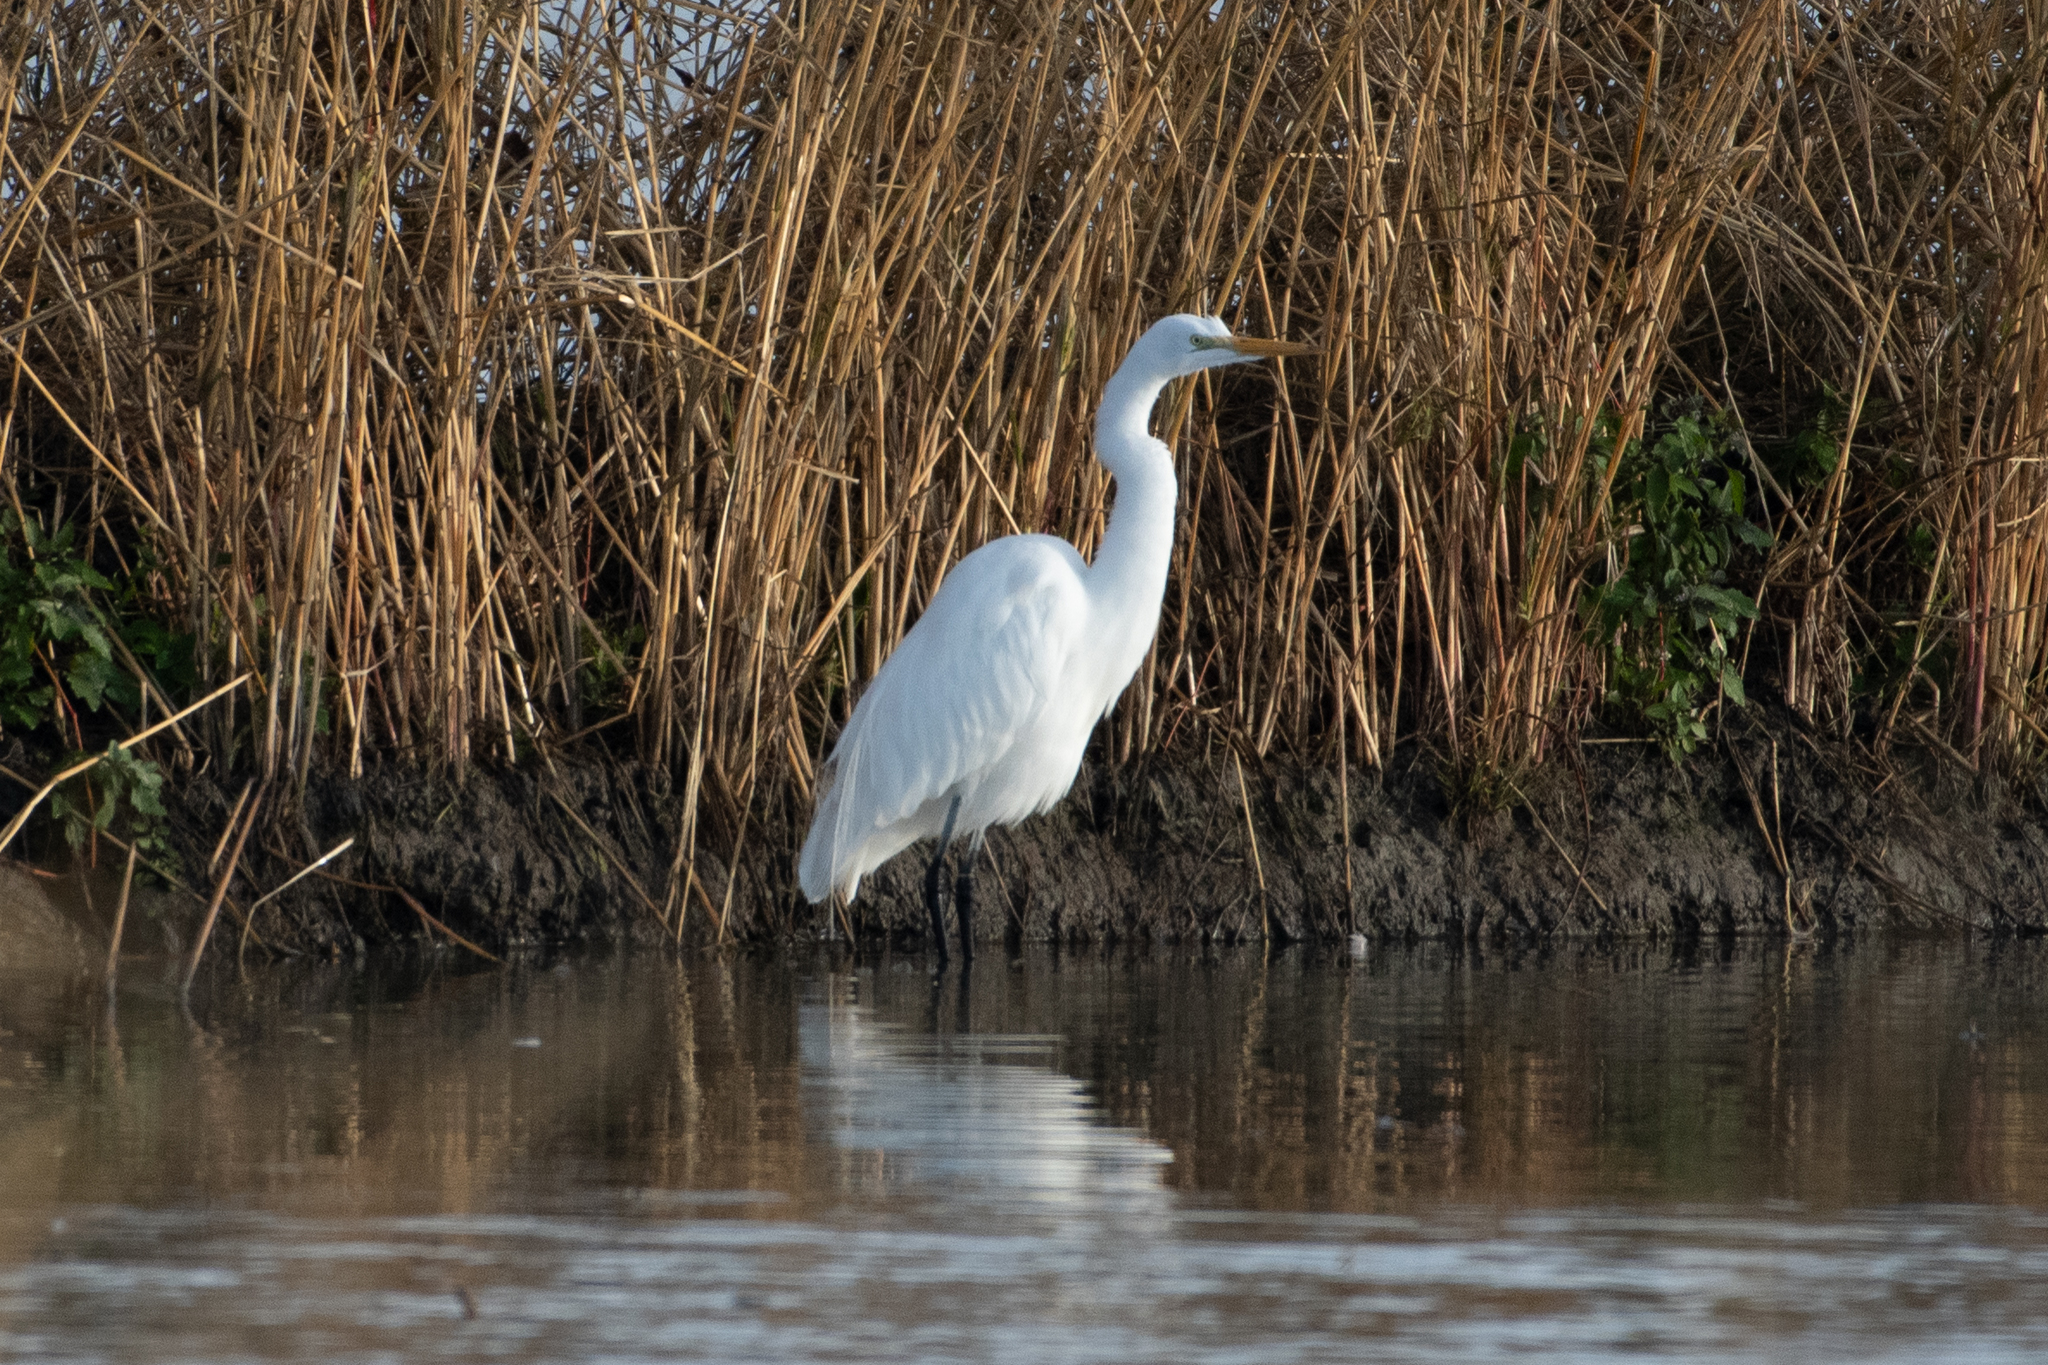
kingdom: Animalia
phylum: Chordata
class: Aves
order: Pelecaniformes
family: Ardeidae
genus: Ardea
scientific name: Ardea alba
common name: Great egret
